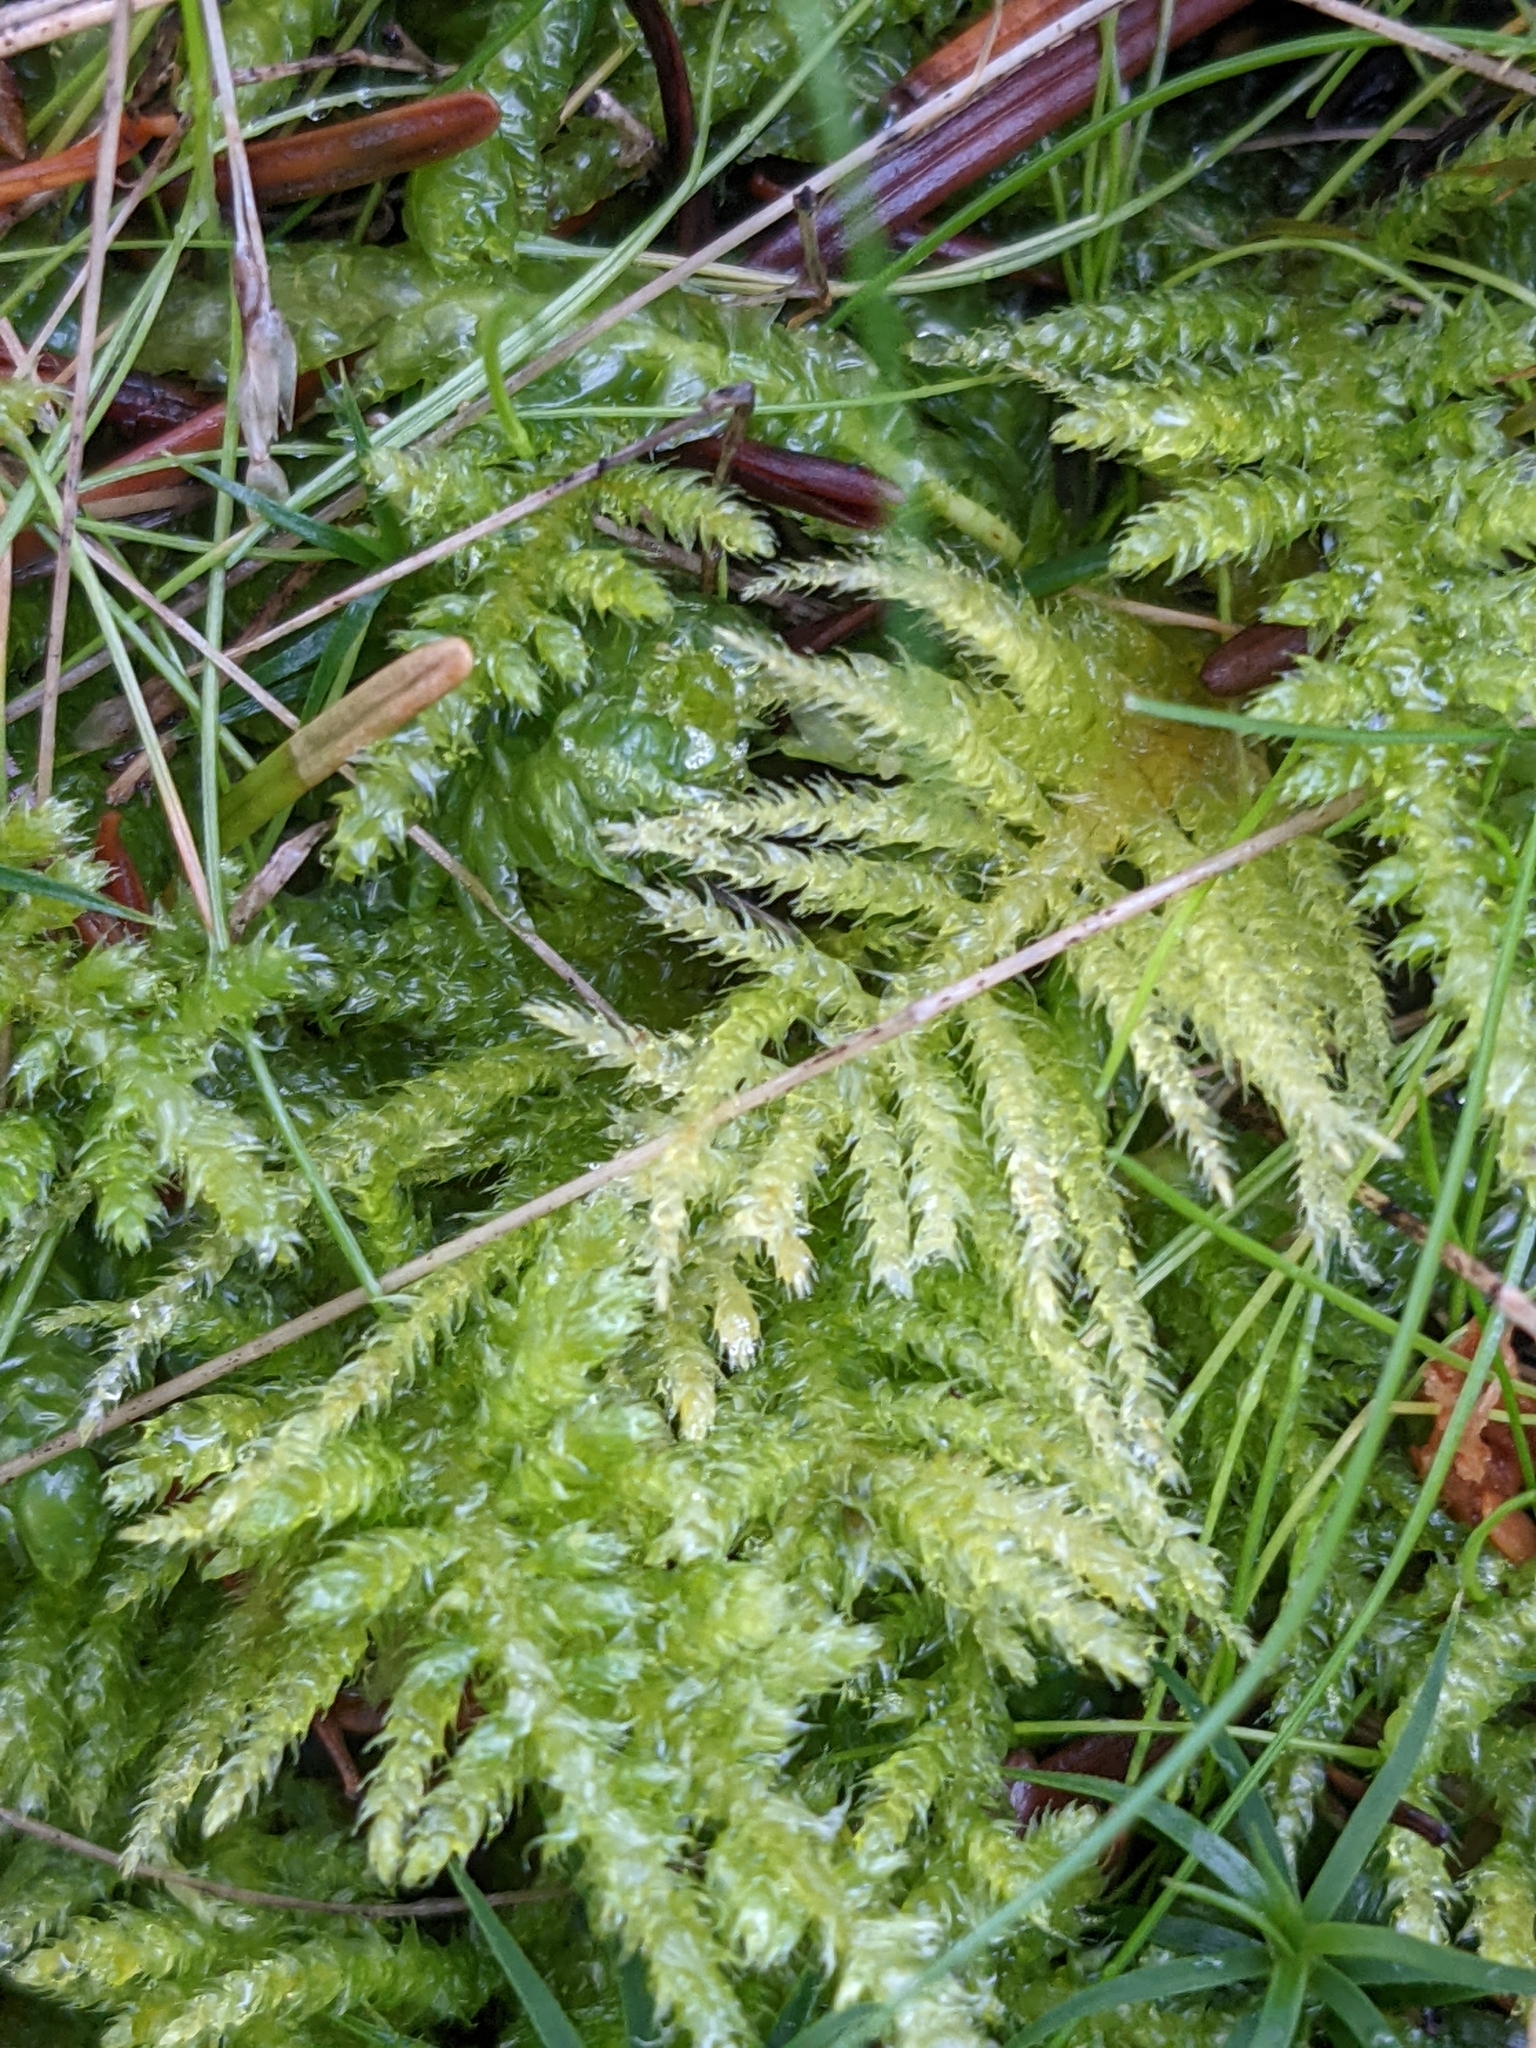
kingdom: Plantae
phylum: Bryophyta
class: Bryopsida
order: Hypnales
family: Brachytheciaceae
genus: Kindbergia
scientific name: Kindbergia oregana
